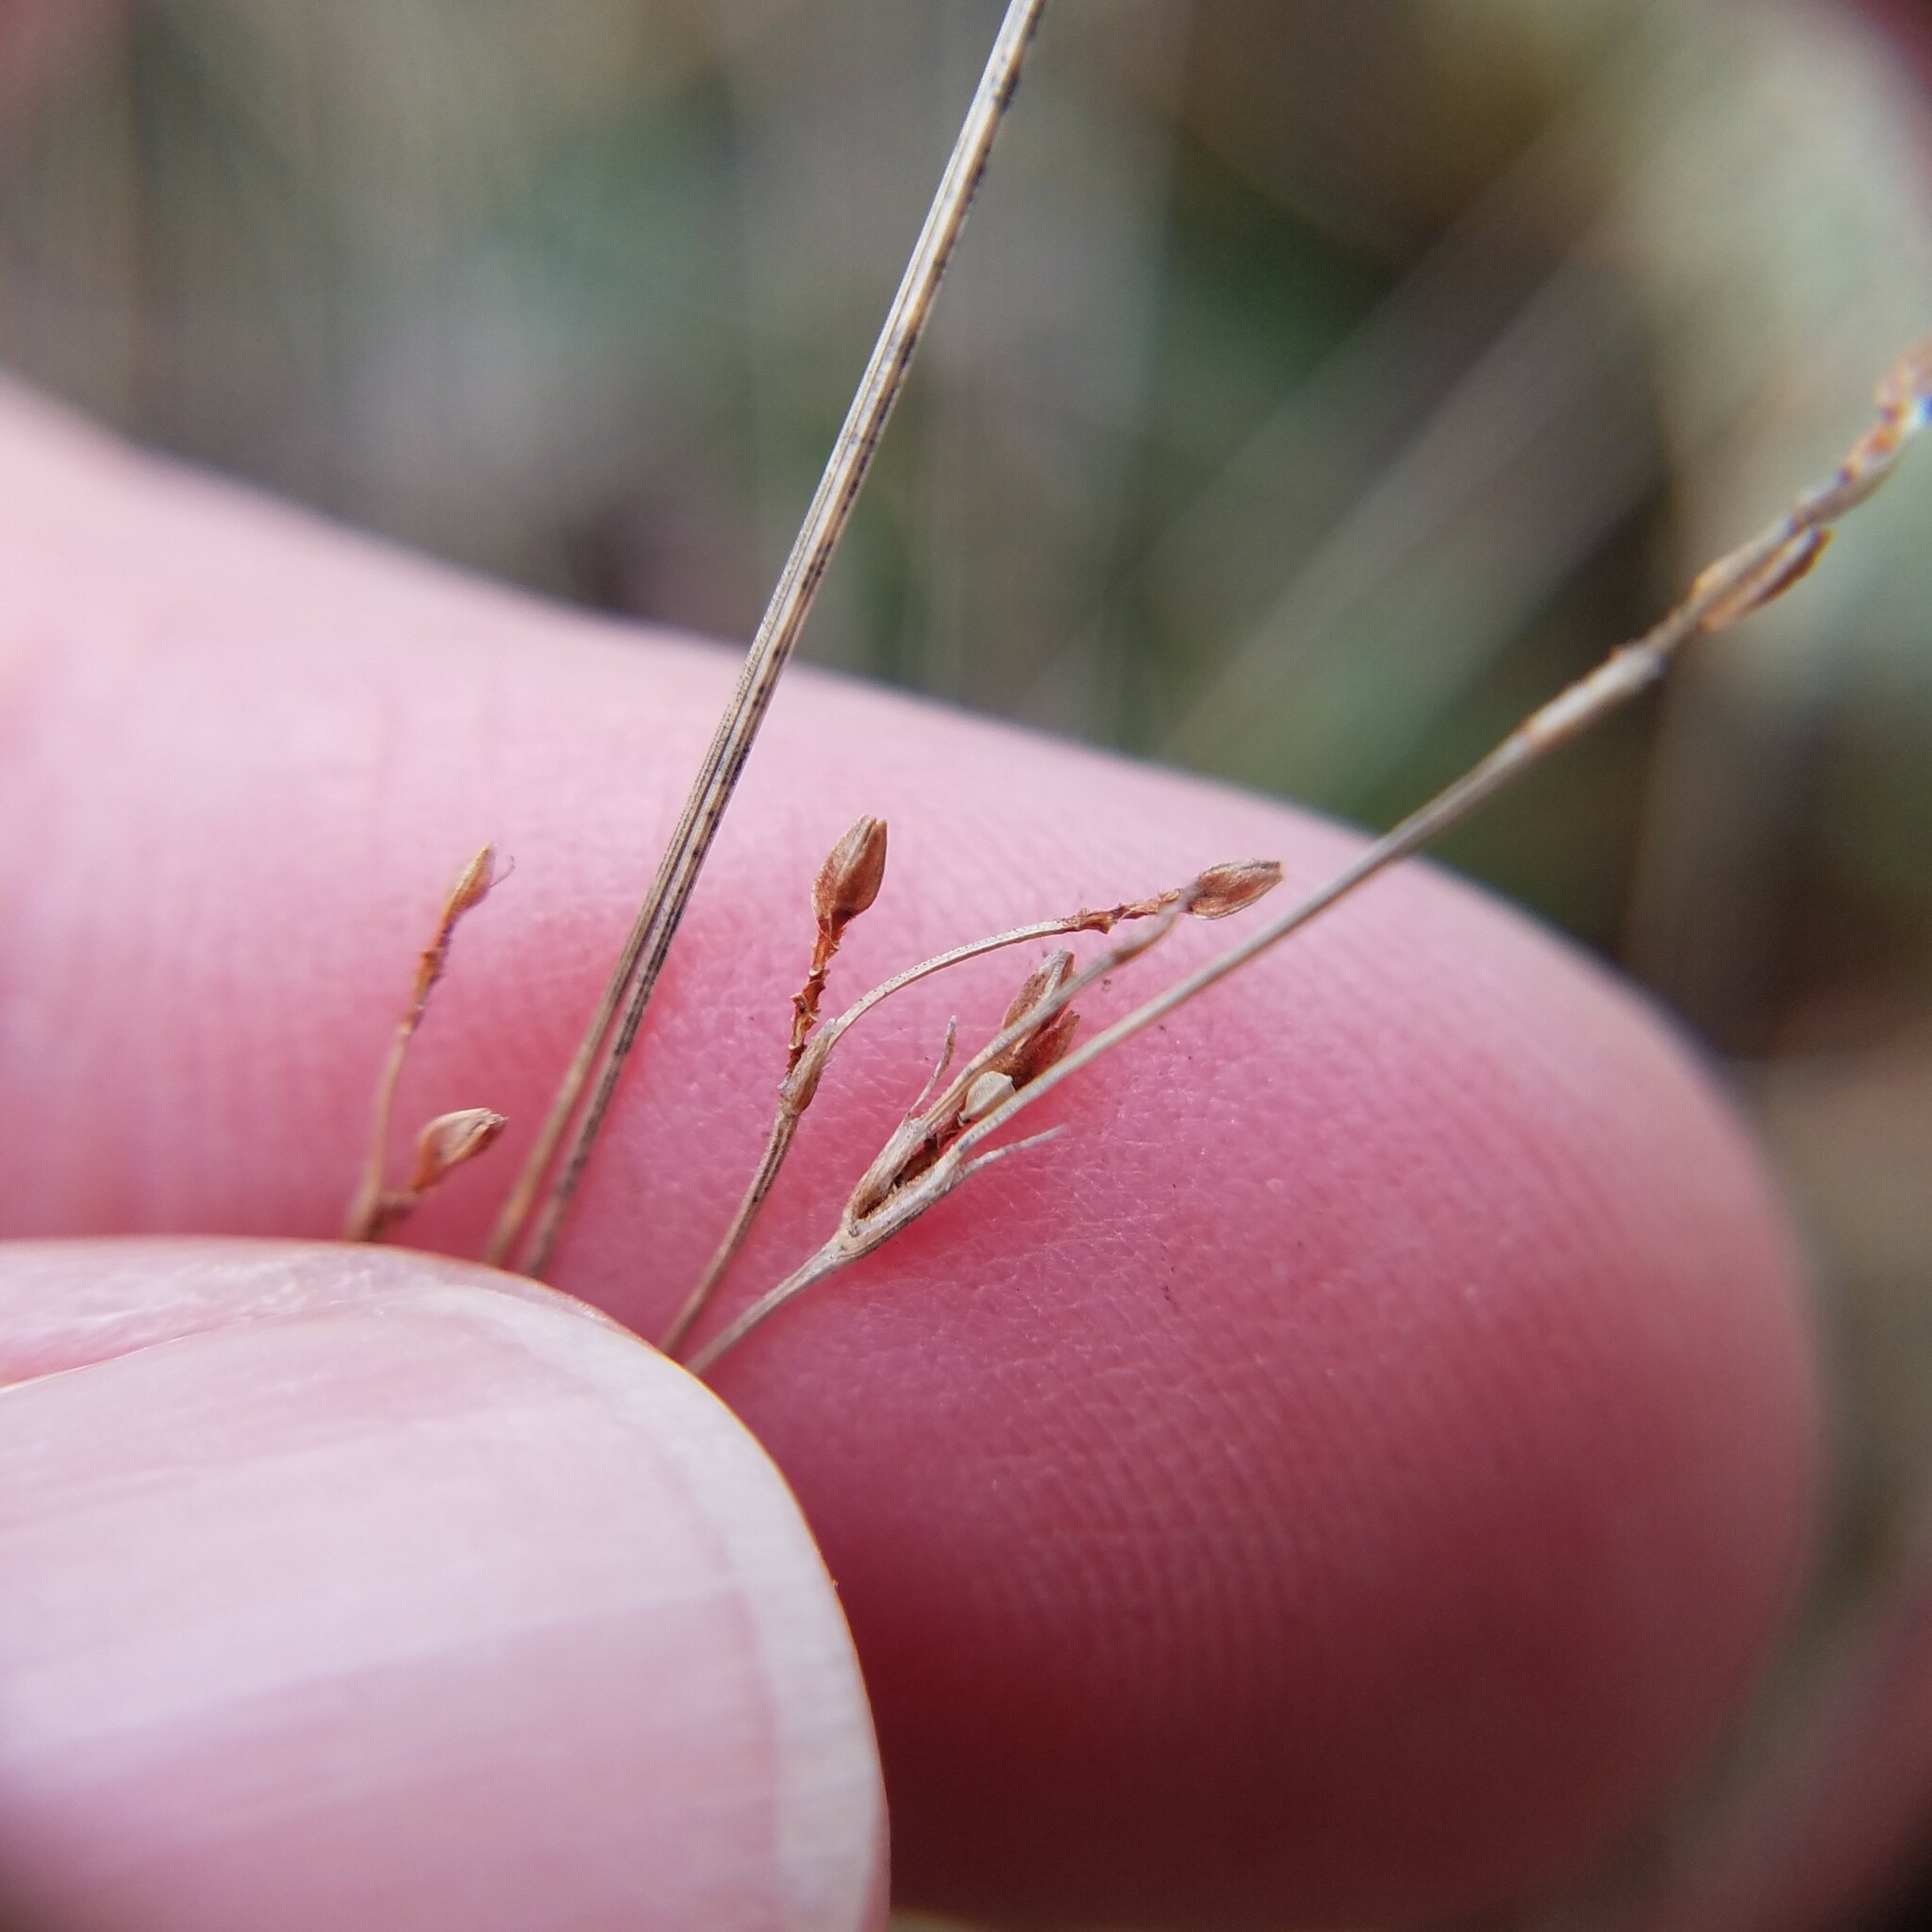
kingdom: Plantae
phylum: Tracheophyta
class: Liliopsida
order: Poales
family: Cyperaceae
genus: Bulbostylis
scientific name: Bulbostylis capillaris
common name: Densetuft hairsedge
